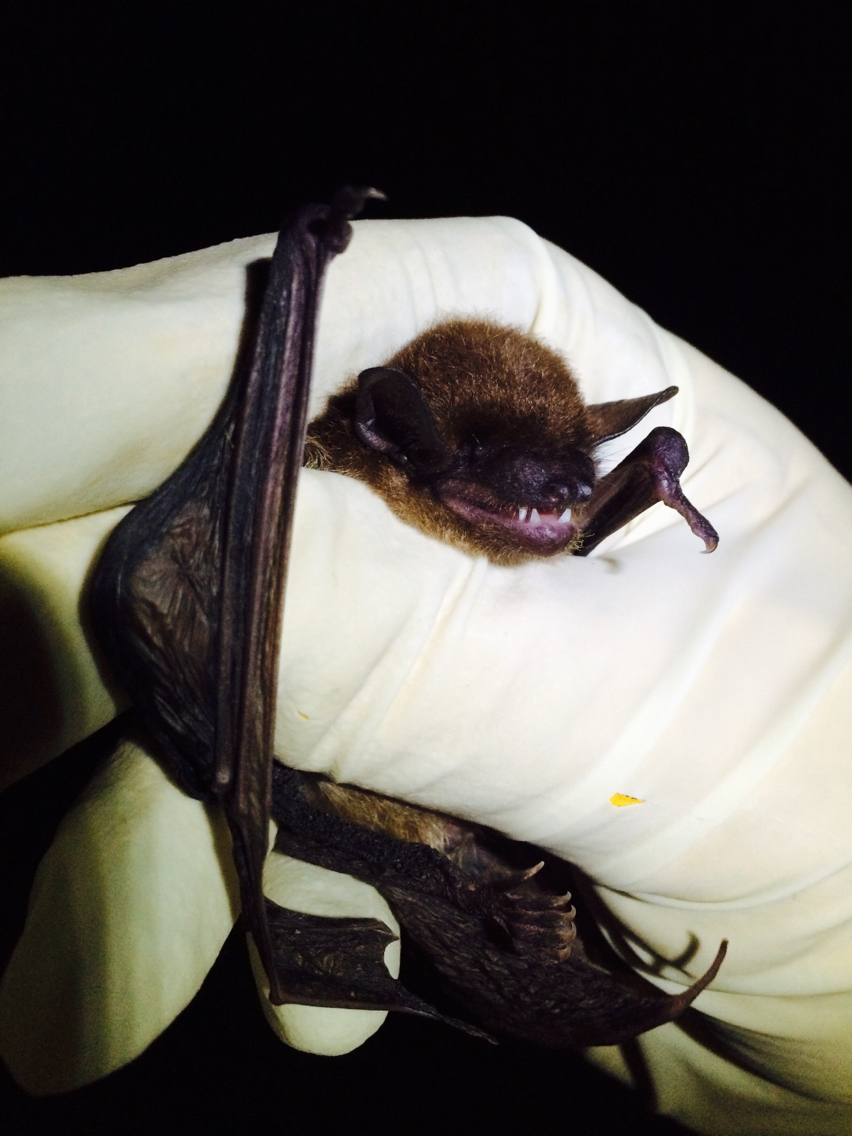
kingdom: Animalia
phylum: Chordata
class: Mammalia
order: Chiroptera
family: Vespertilionidae
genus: Eptesicus
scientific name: Eptesicus fuscus
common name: Big brown bat
